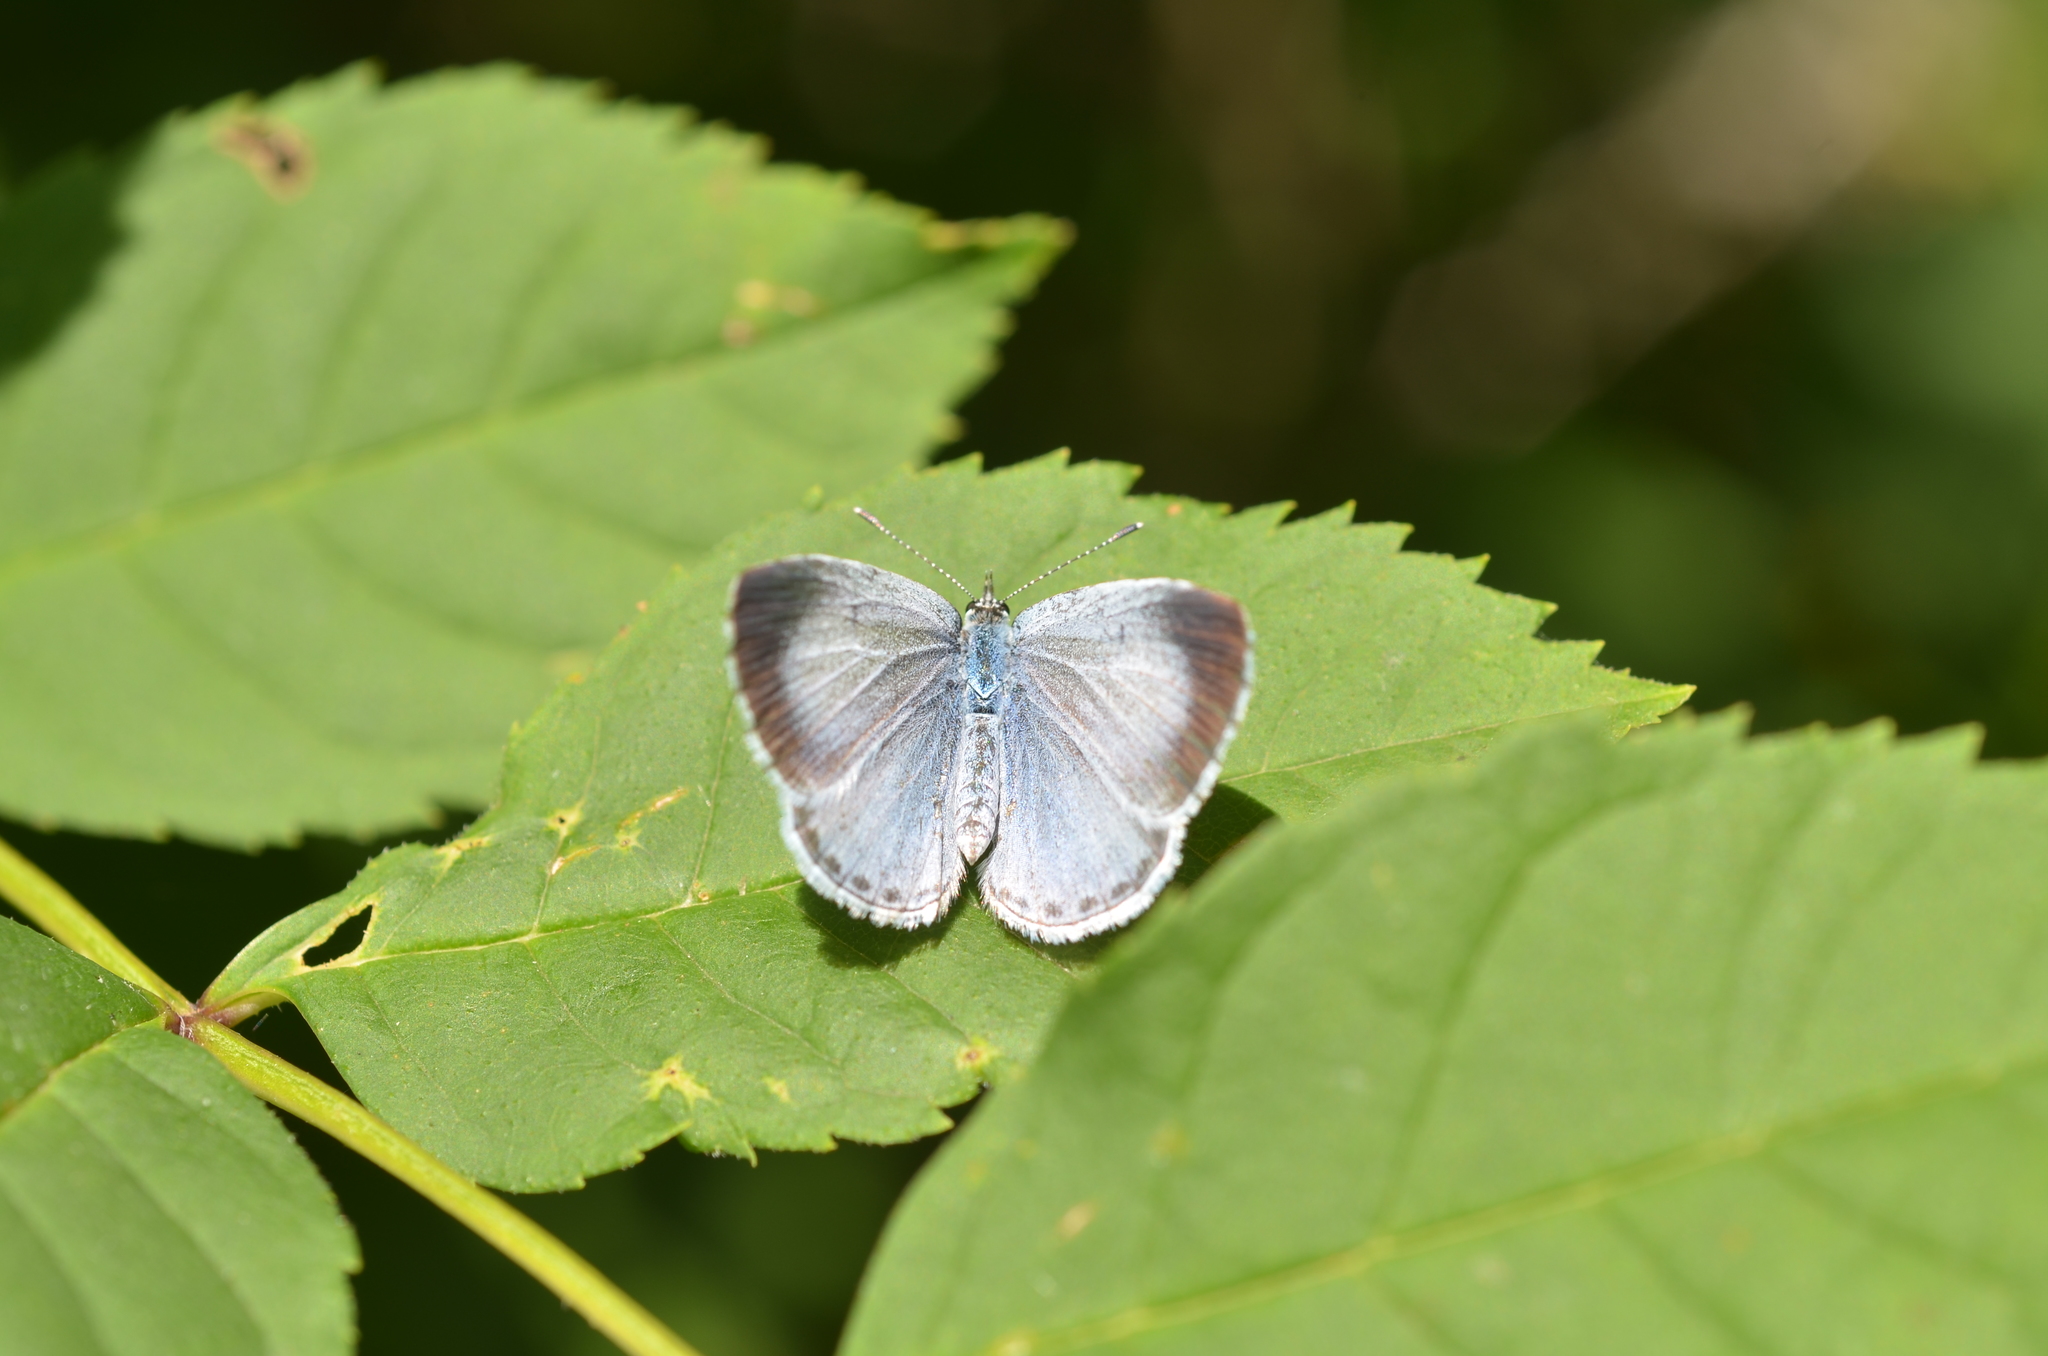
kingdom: Animalia
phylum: Arthropoda
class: Insecta
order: Lepidoptera
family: Lycaenidae
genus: Celastrina
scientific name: Celastrina argiolus
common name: Holly blue
